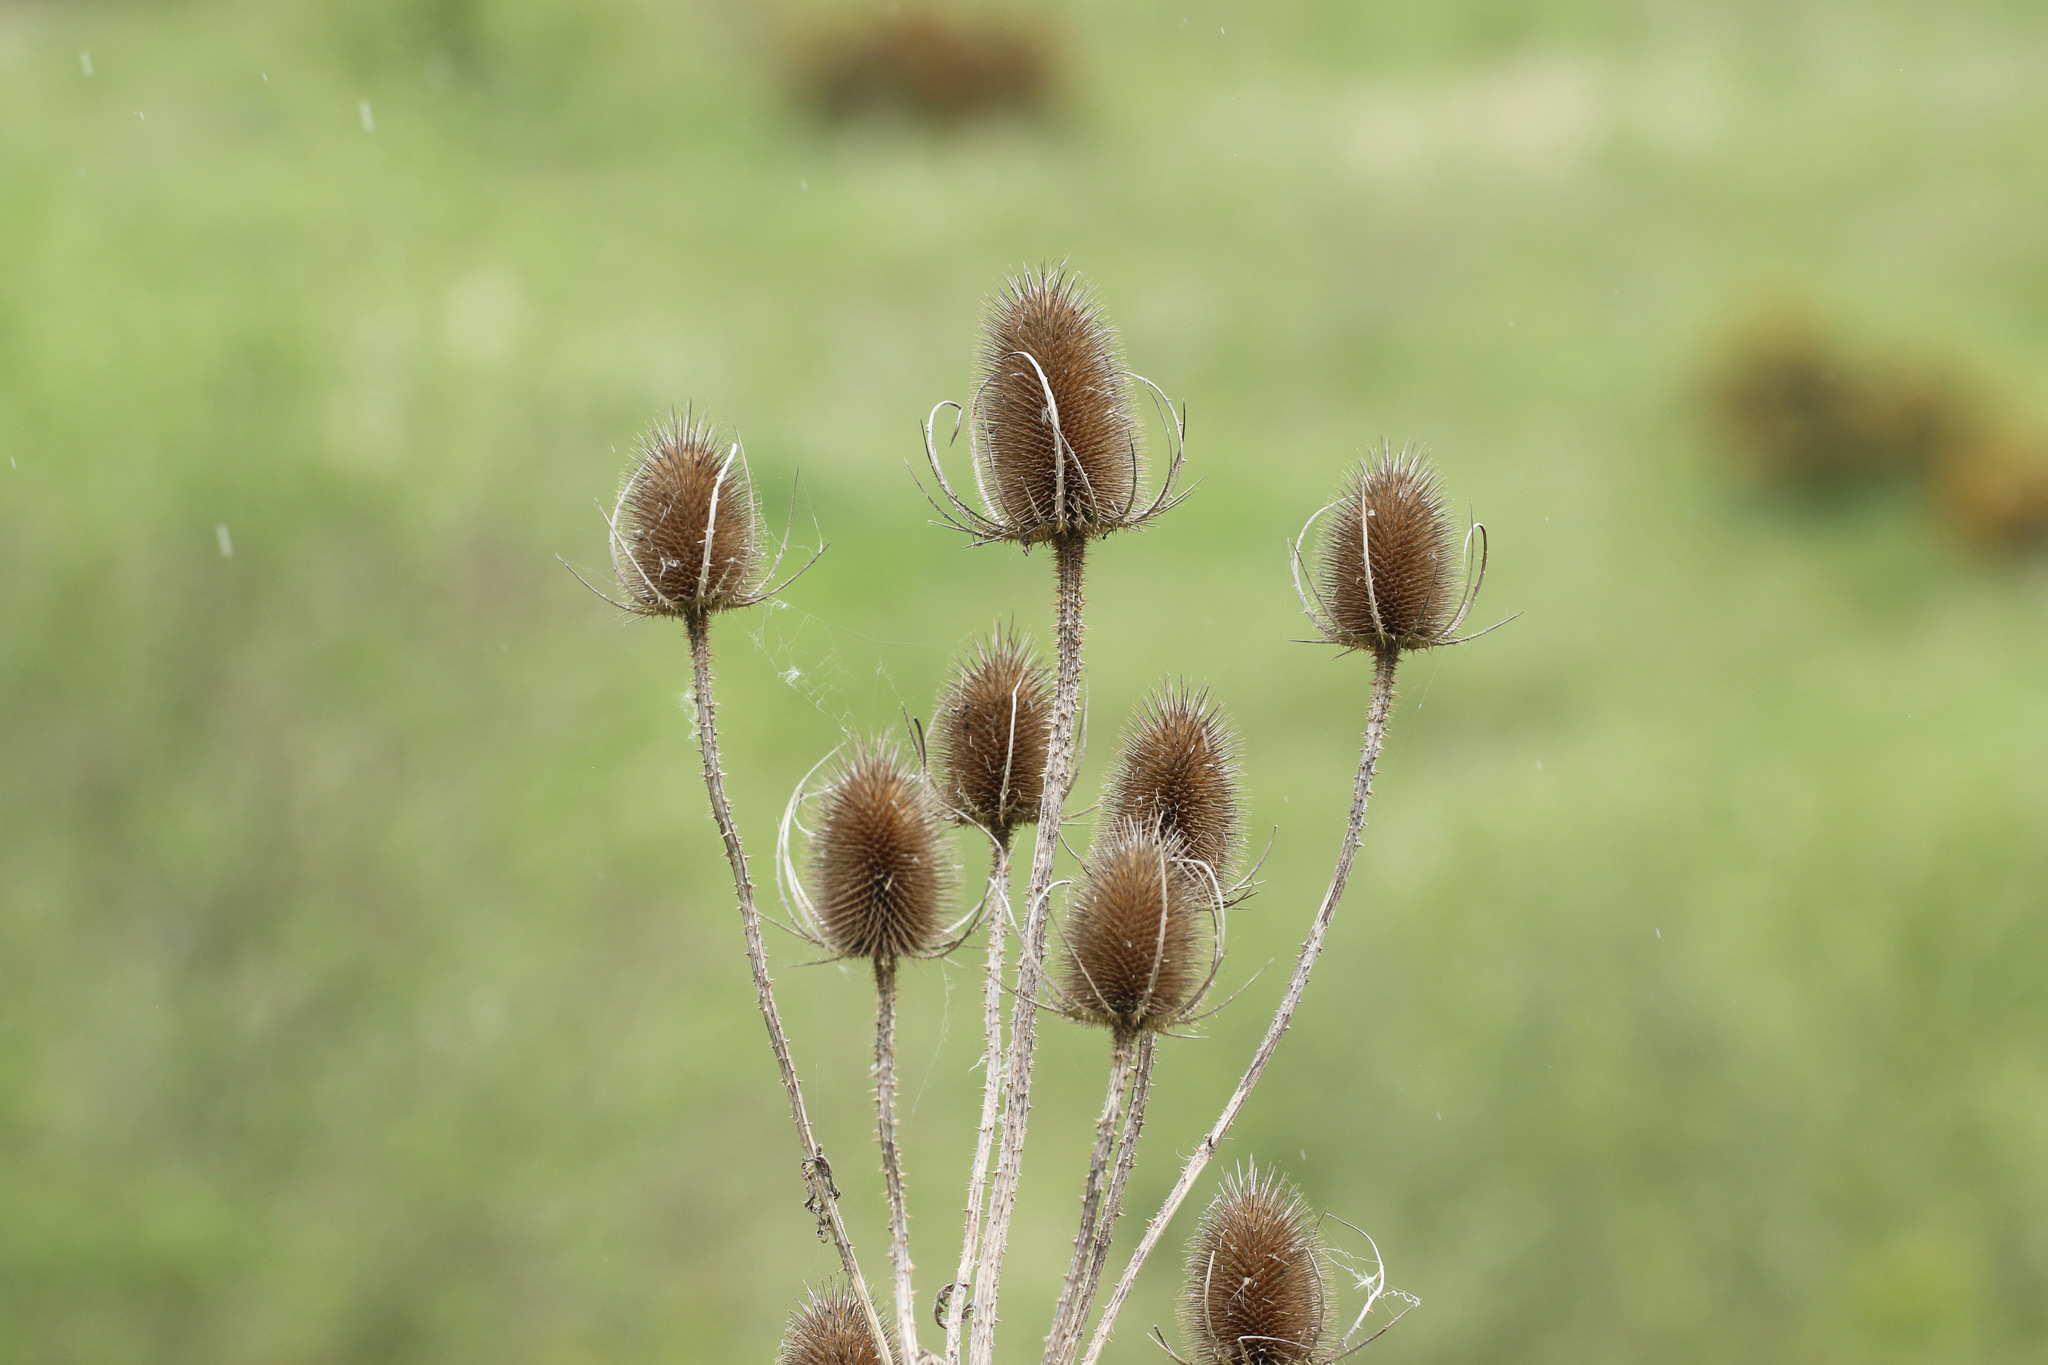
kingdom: Plantae
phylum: Tracheophyta
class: Magnoliopsida
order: Dipsacales
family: Caprifoliaceae
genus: Dipsacus
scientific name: Dipsacus fullonum
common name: Teasel
